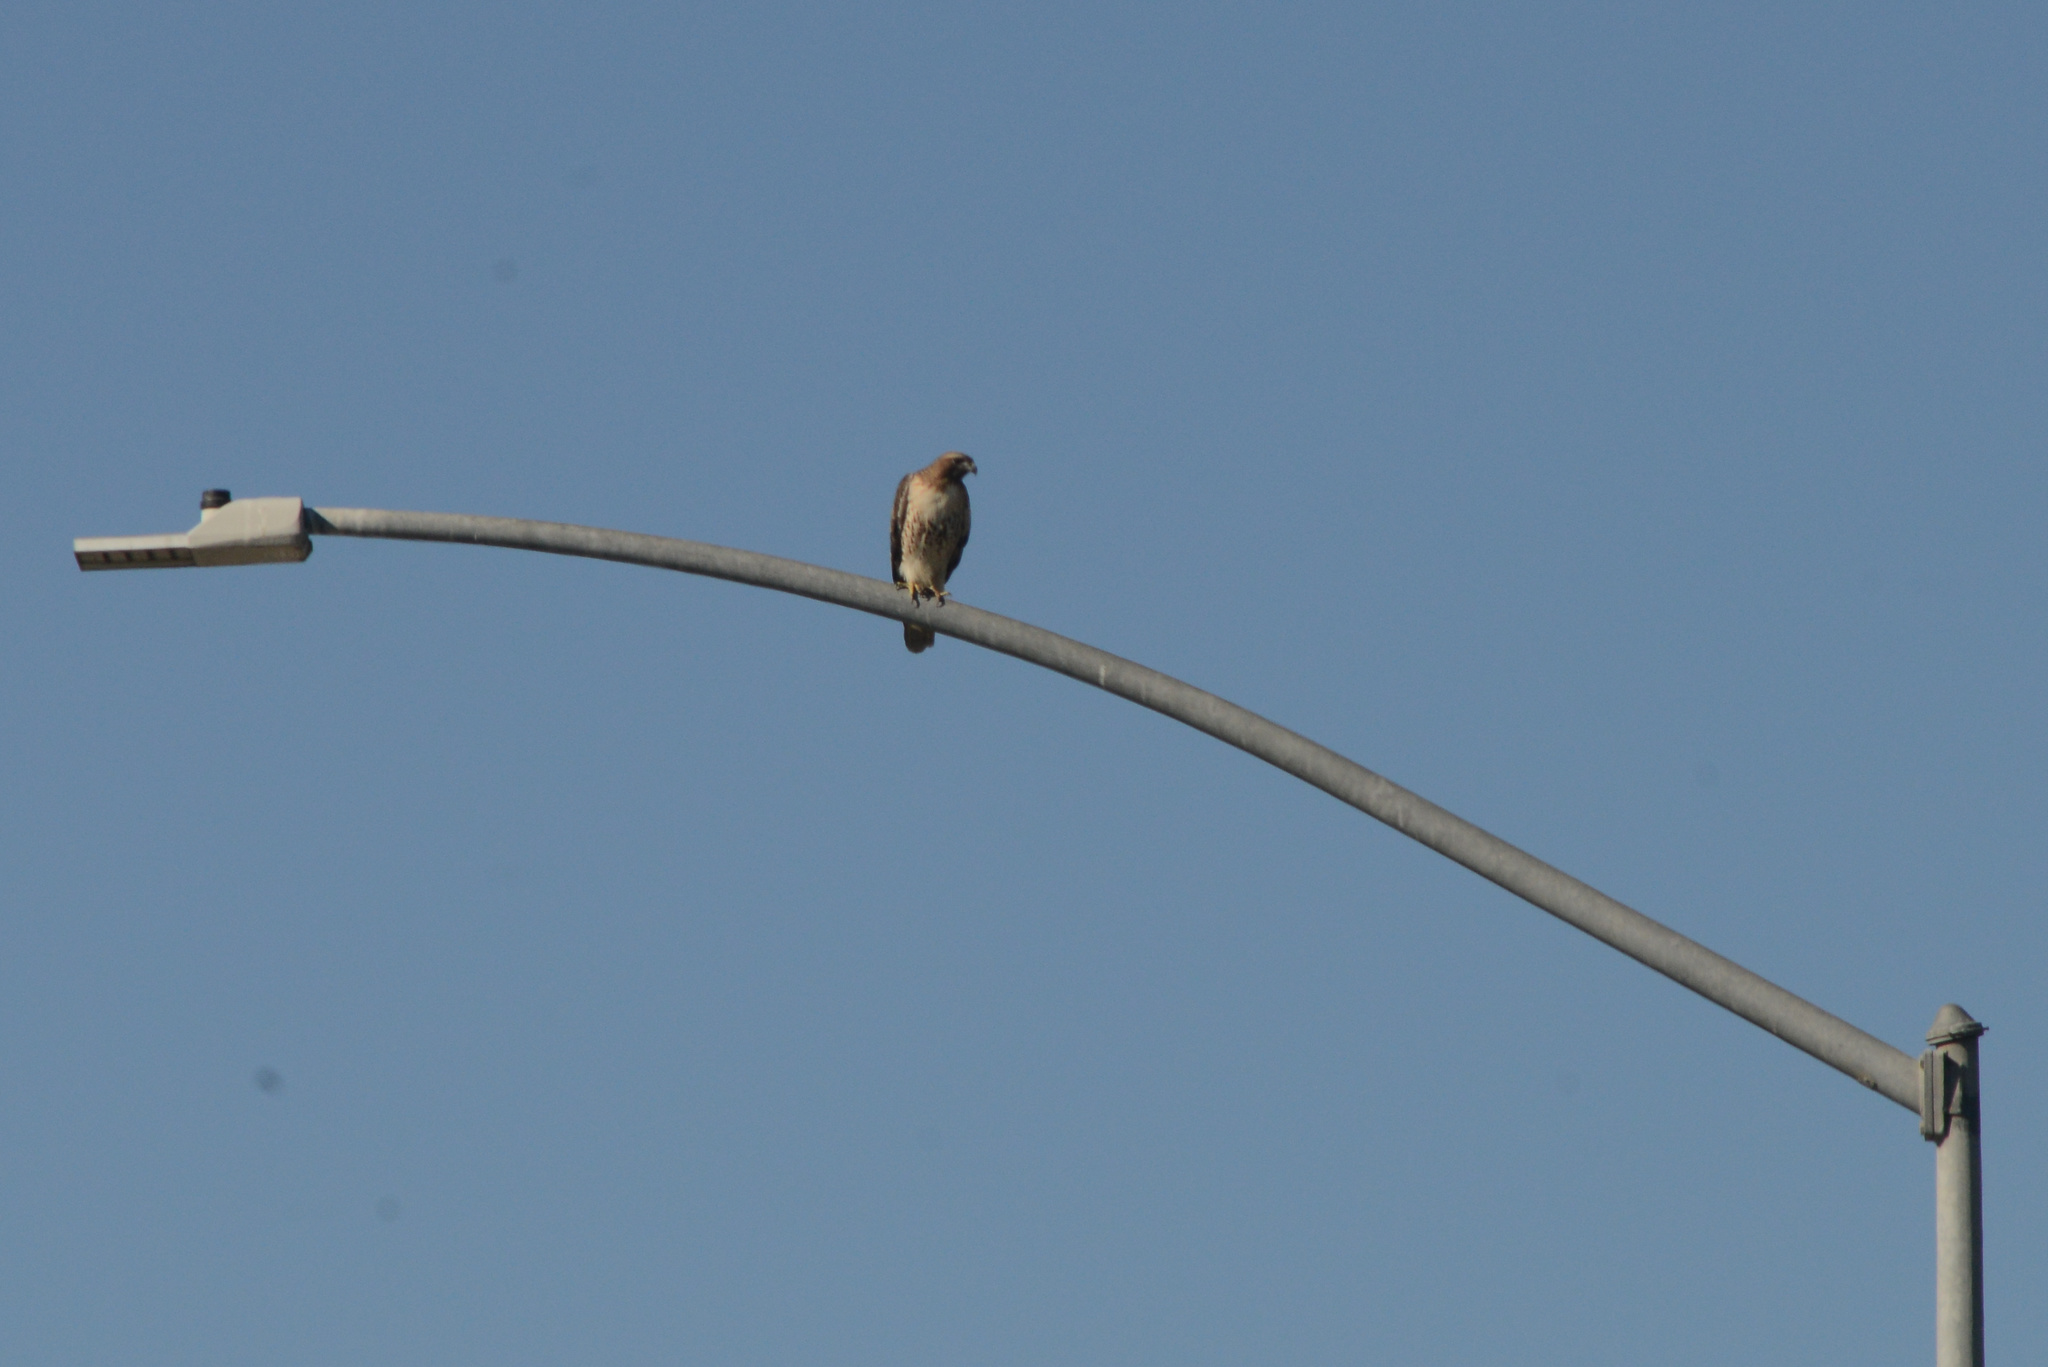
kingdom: Animalia
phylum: Chordata
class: Aves
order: Accipitriformes
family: Accipitridae
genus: Buteo
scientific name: Buteo jamaicensis
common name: Red-tailed hawk
